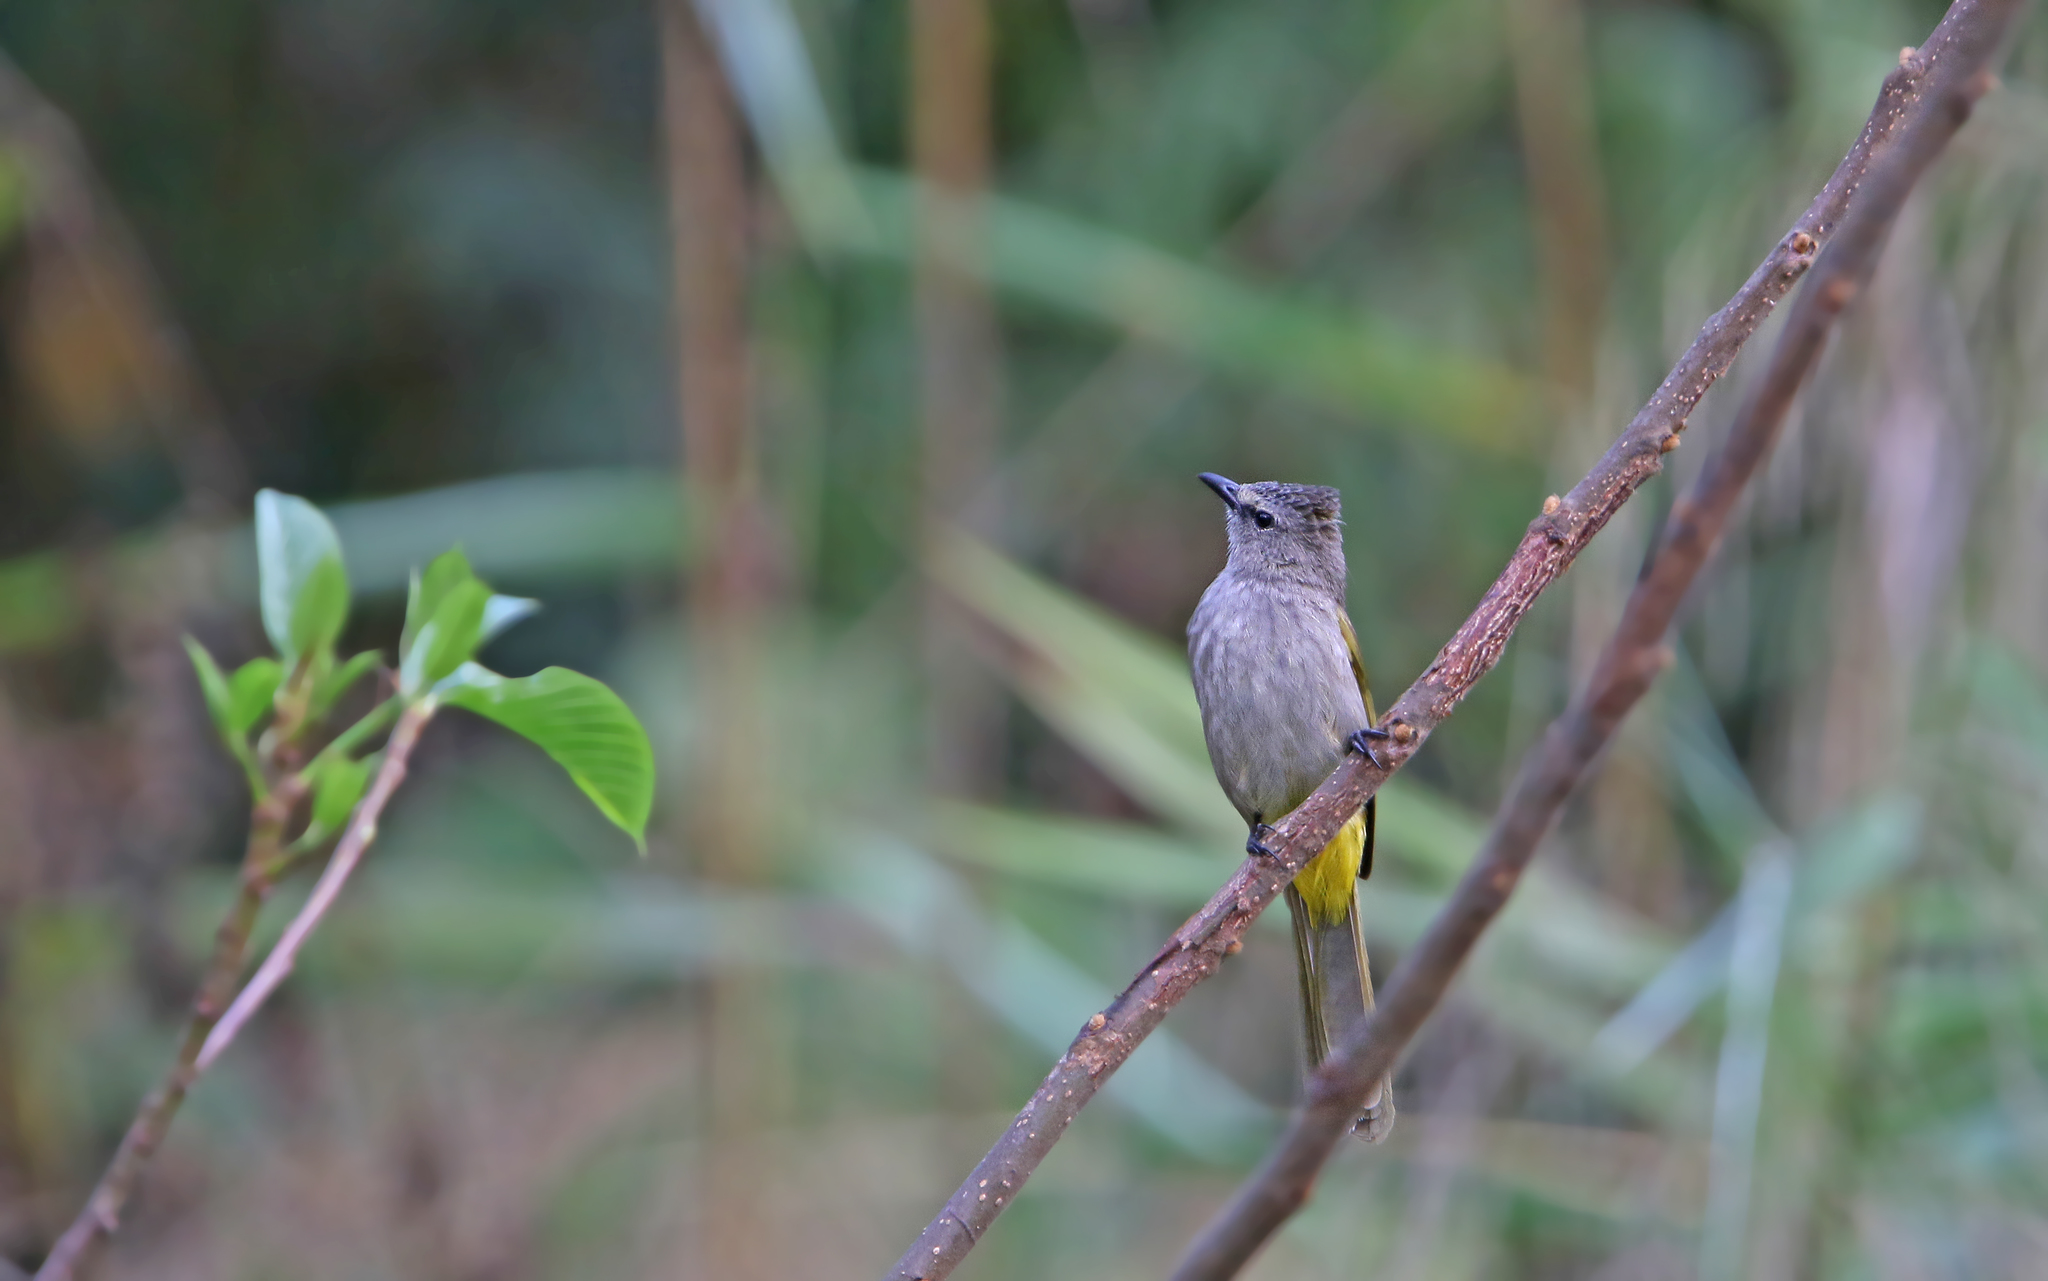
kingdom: Animalia
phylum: Chordata
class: Aves
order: Passeriformes
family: Pycnonotidae
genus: Pycnonotus
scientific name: Pycnonotus flavescens
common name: Flavescent bulbul
